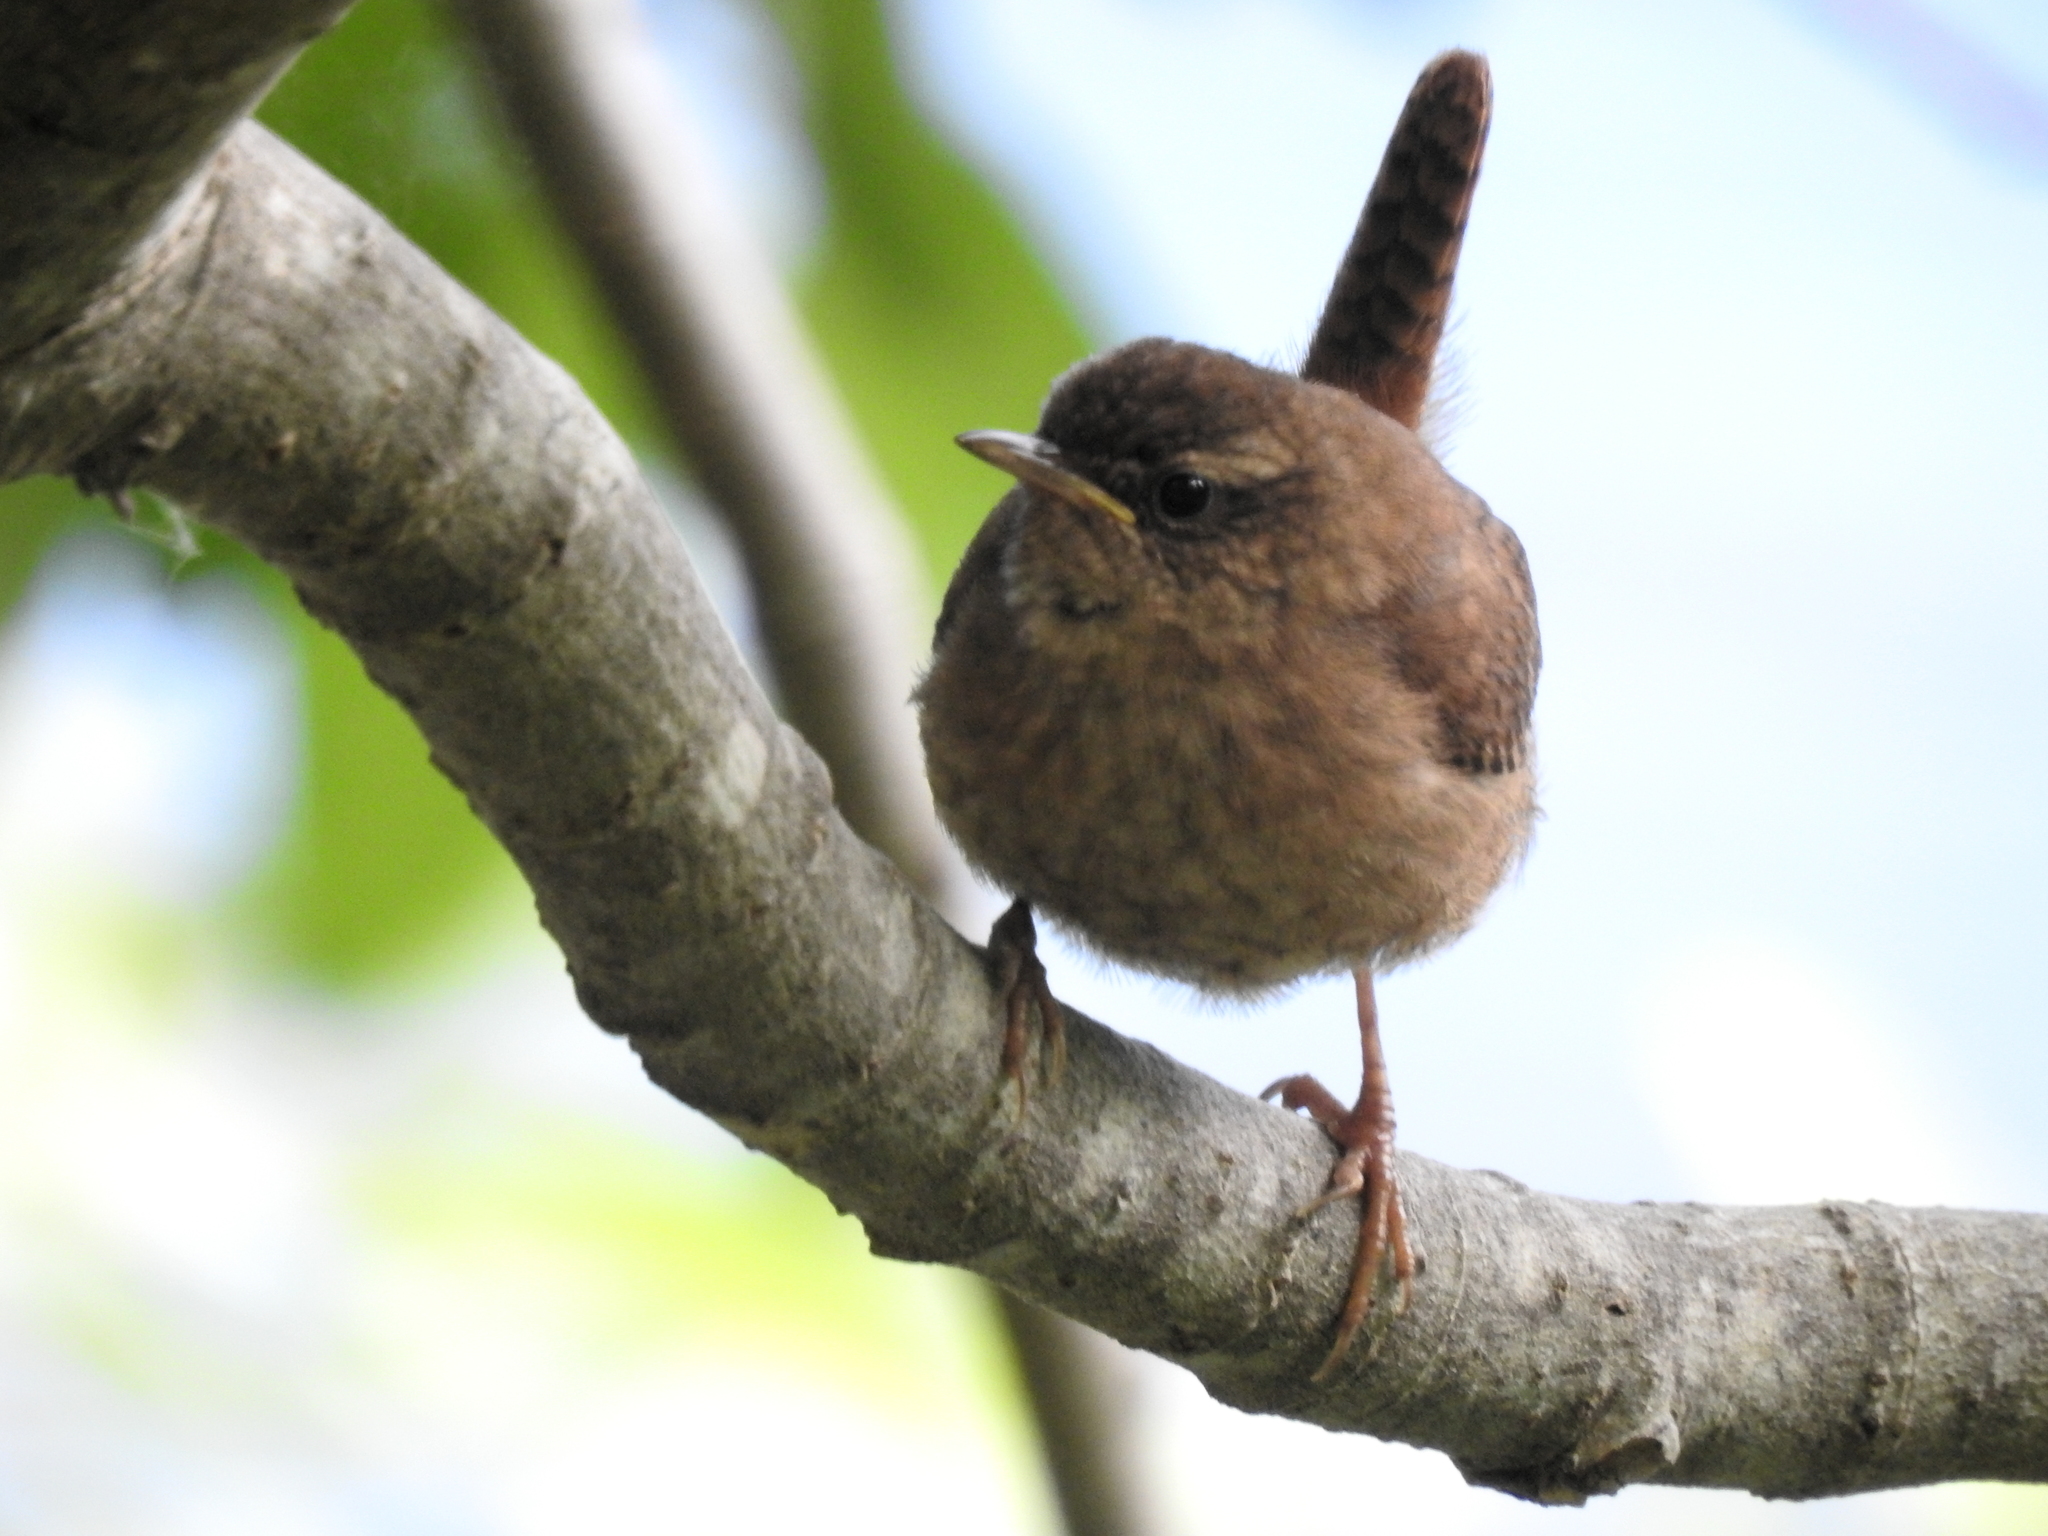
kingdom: Animalia
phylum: Chordata
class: Aves
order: Passeriformes
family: Troglodytidae
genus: Troglodytes
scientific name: Troglodytes troglodytes
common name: Eurasian wren
